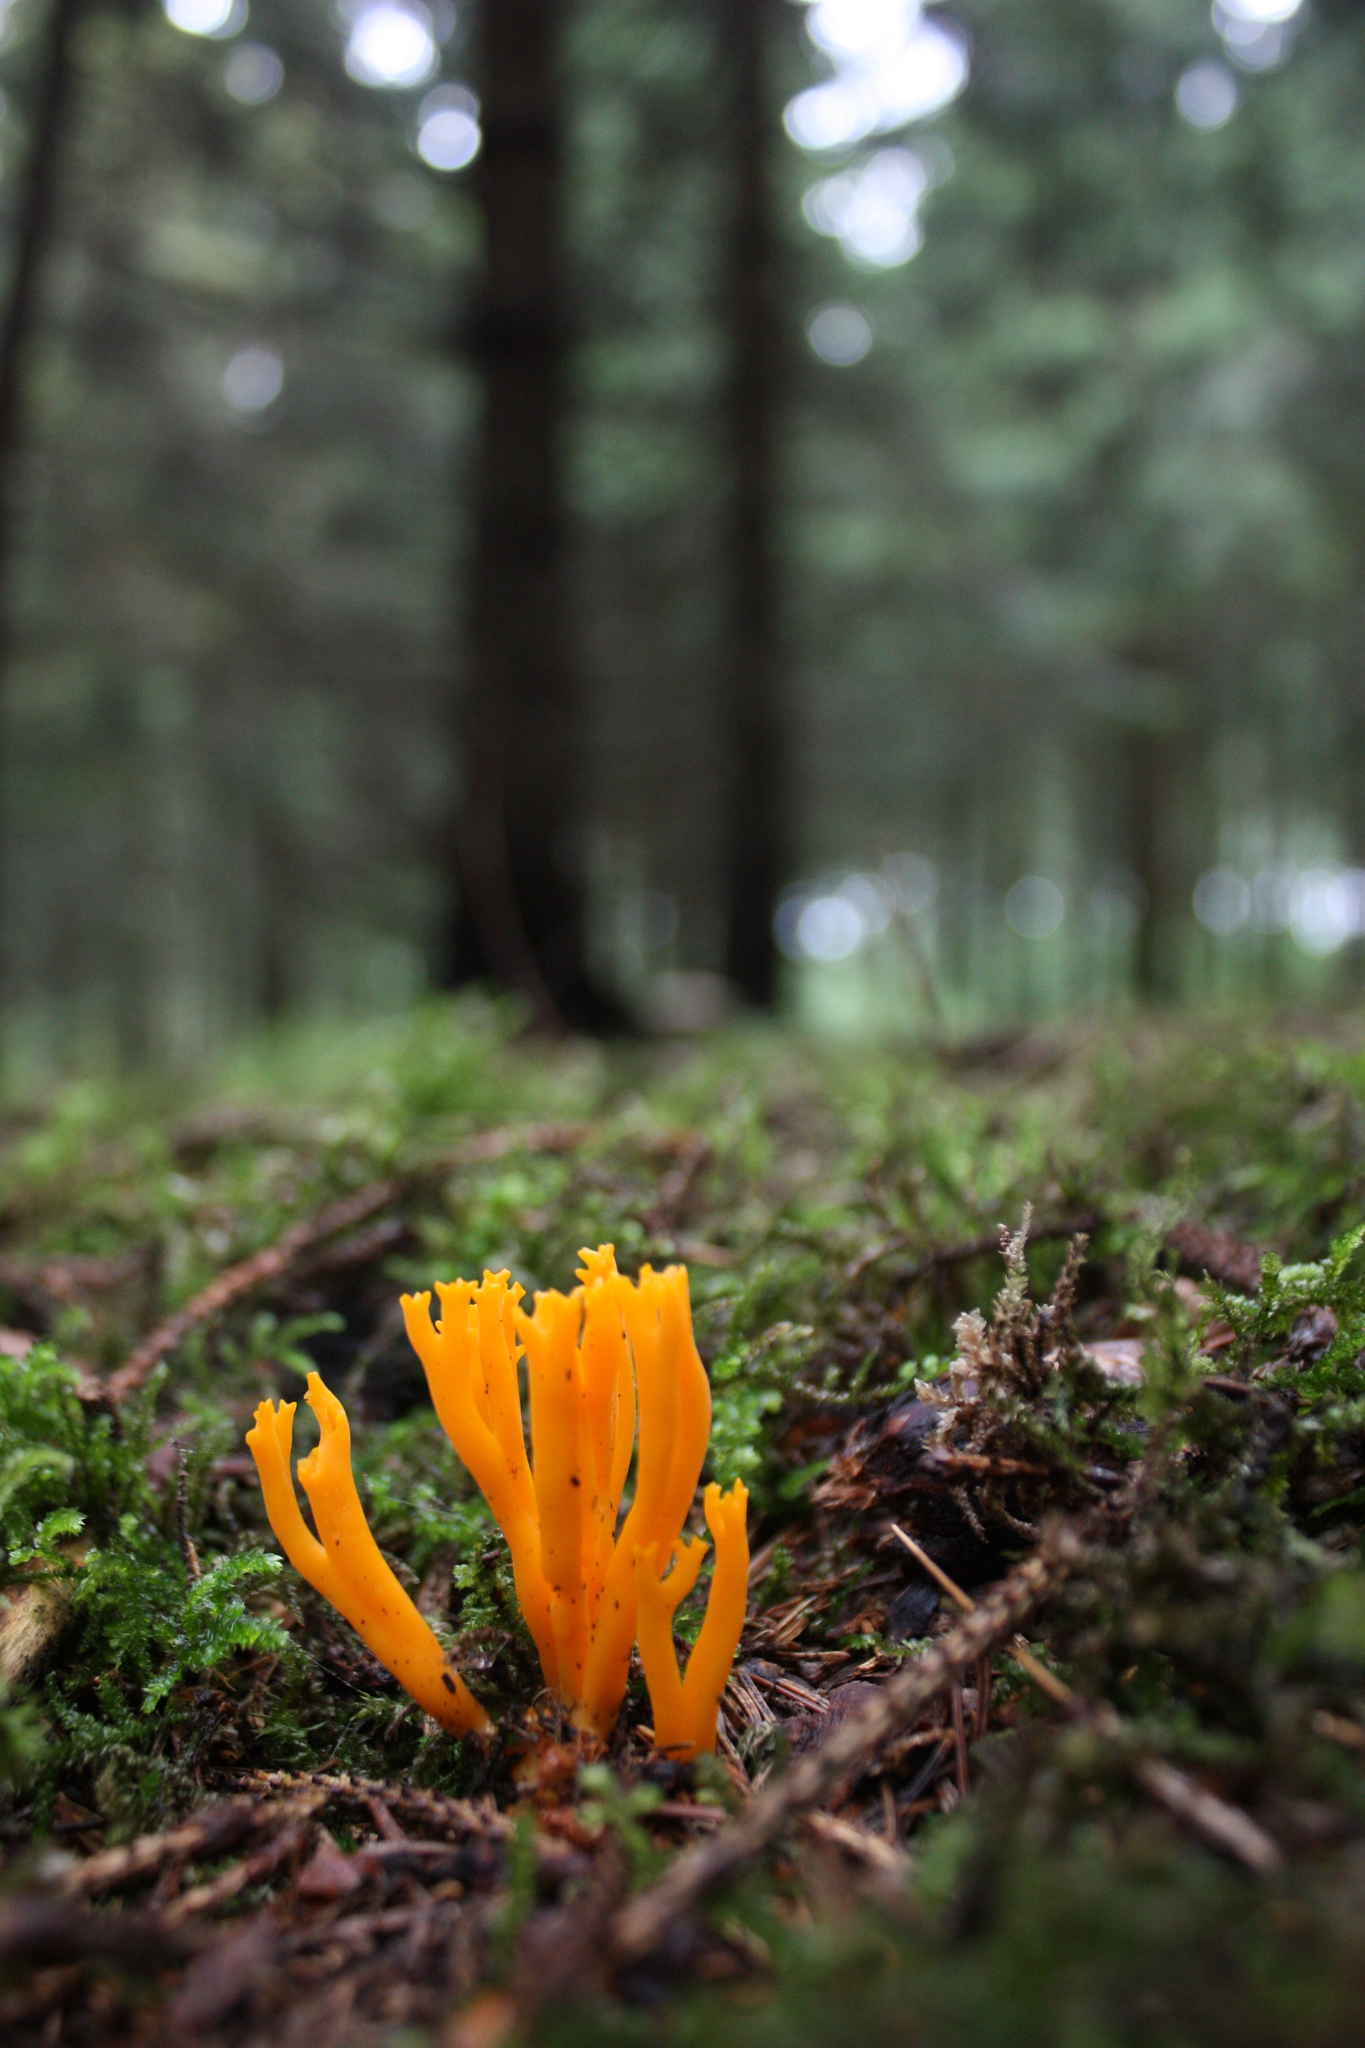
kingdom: Fungi
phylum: Basidiomycota
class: Dacrymycetes
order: Dacrymycetales
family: Dacrymycetaceae
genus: Calocera
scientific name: Calocera viscosa
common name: Yellow stagshorn
